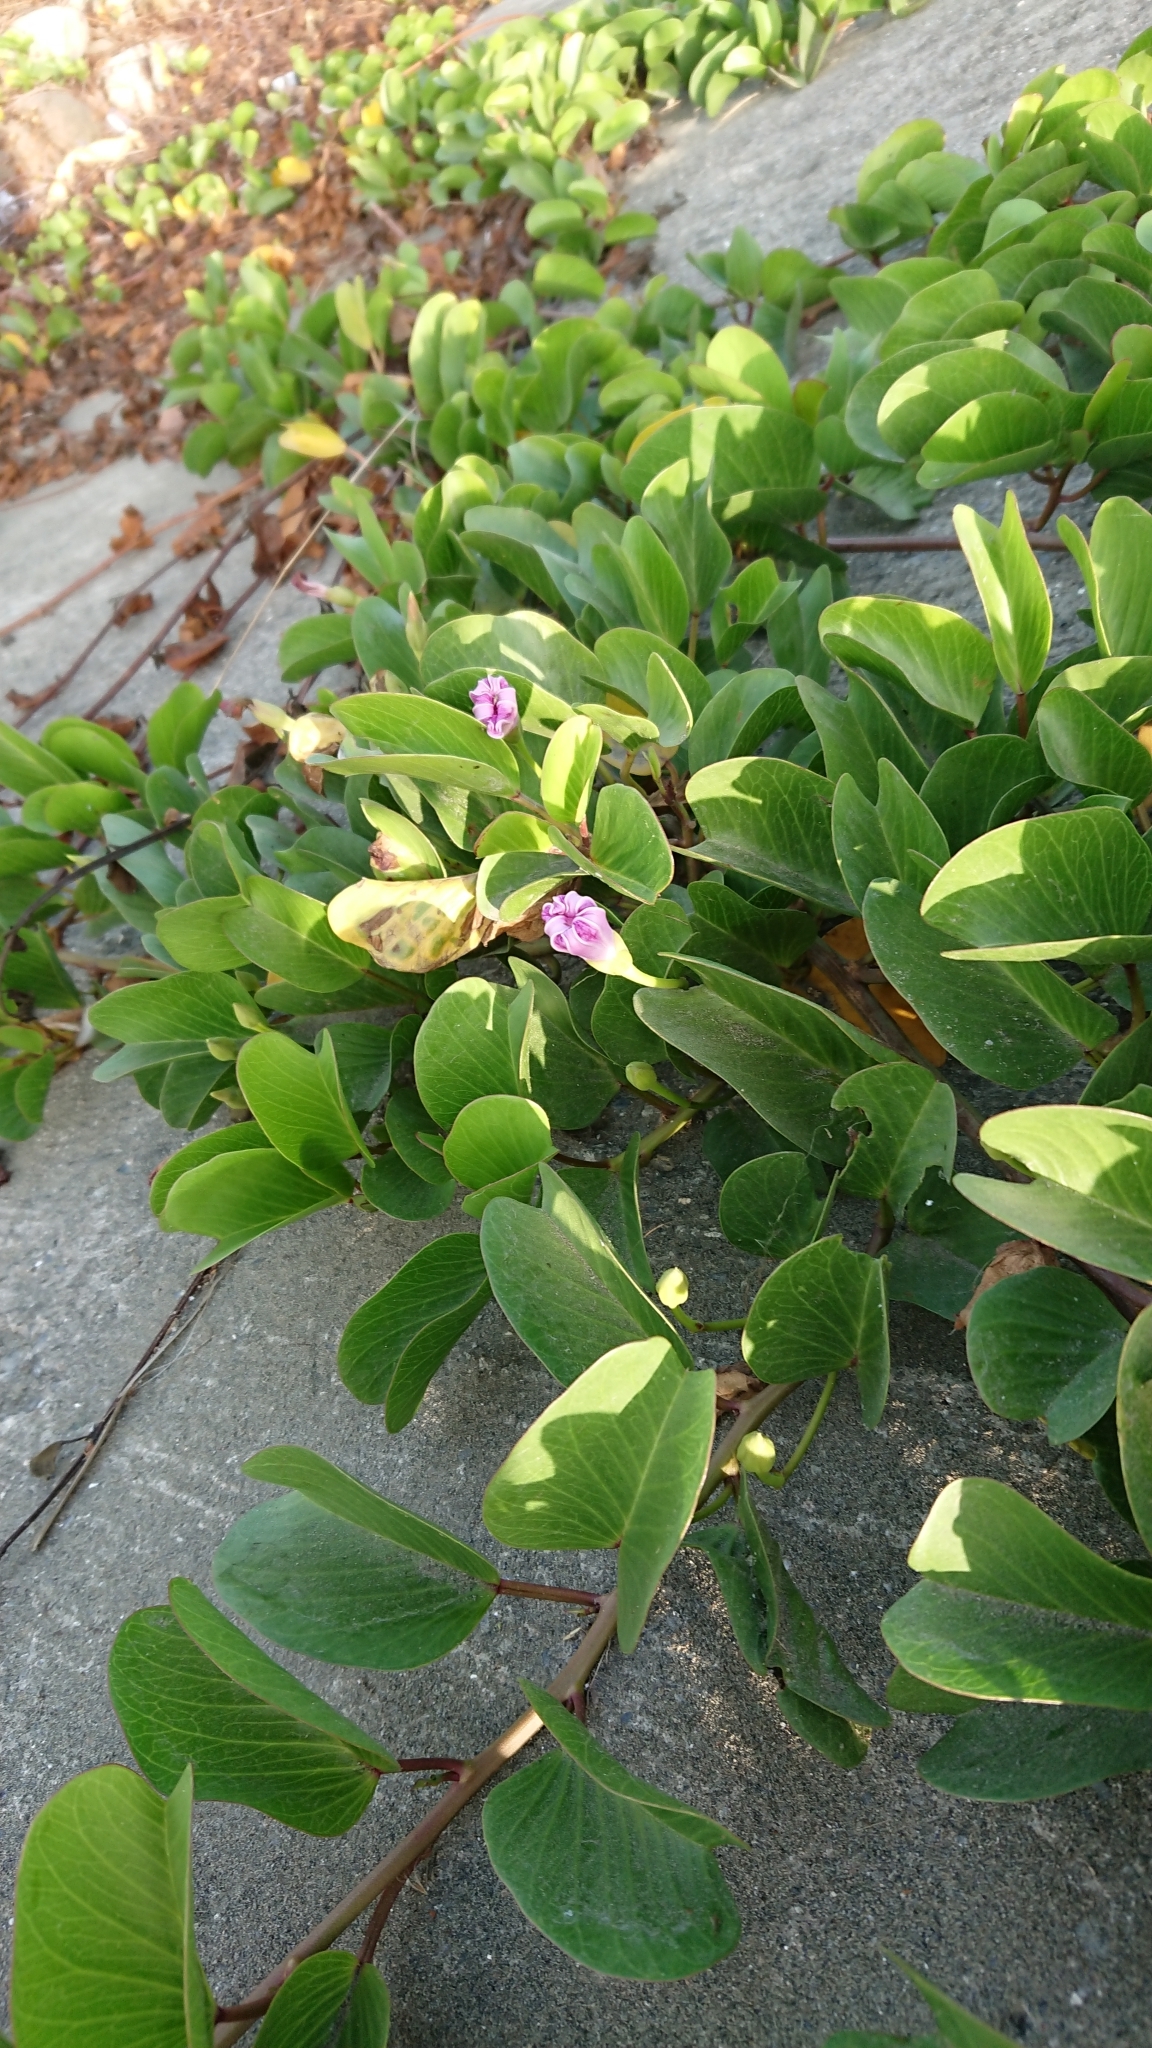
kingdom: Plantae
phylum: Tracheophyta
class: Magnoliopsida
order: Solanales
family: Convolvulaceae
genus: Ipomoea
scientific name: Ipomoea pes-caprae
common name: Beach morning glory
